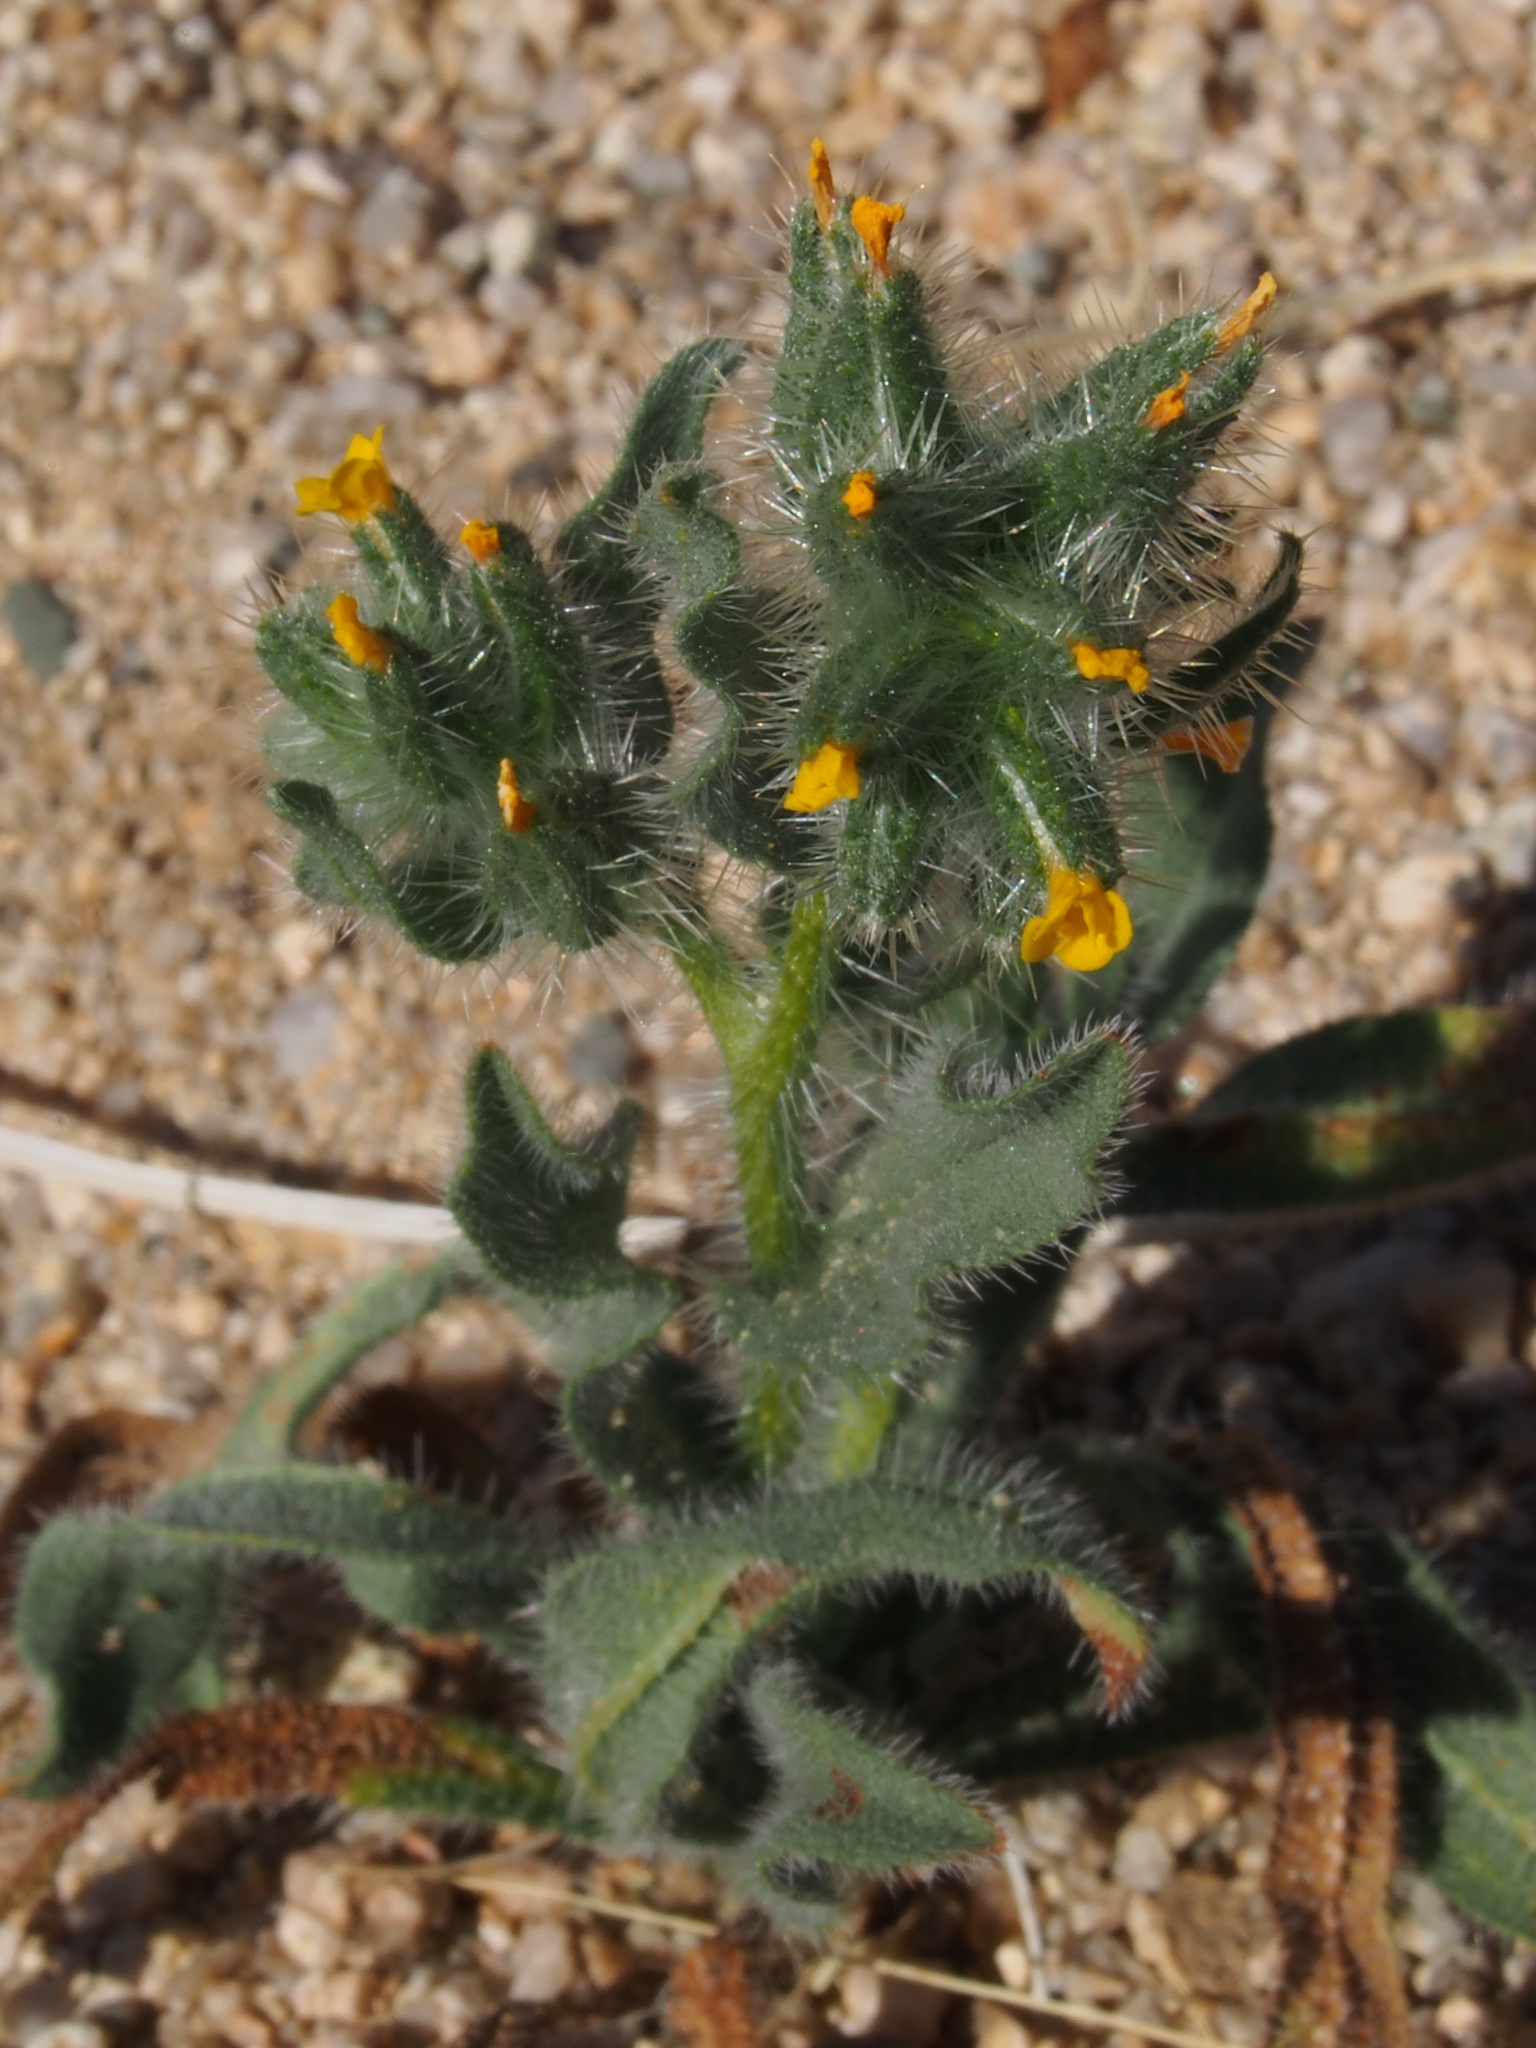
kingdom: Plantae
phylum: Tracheophyta
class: Magnoliopsida
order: Boraginales
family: Boraginaceae
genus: Amsinckia
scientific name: Amsinckia tessellata
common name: Tessellate fiddleneck
